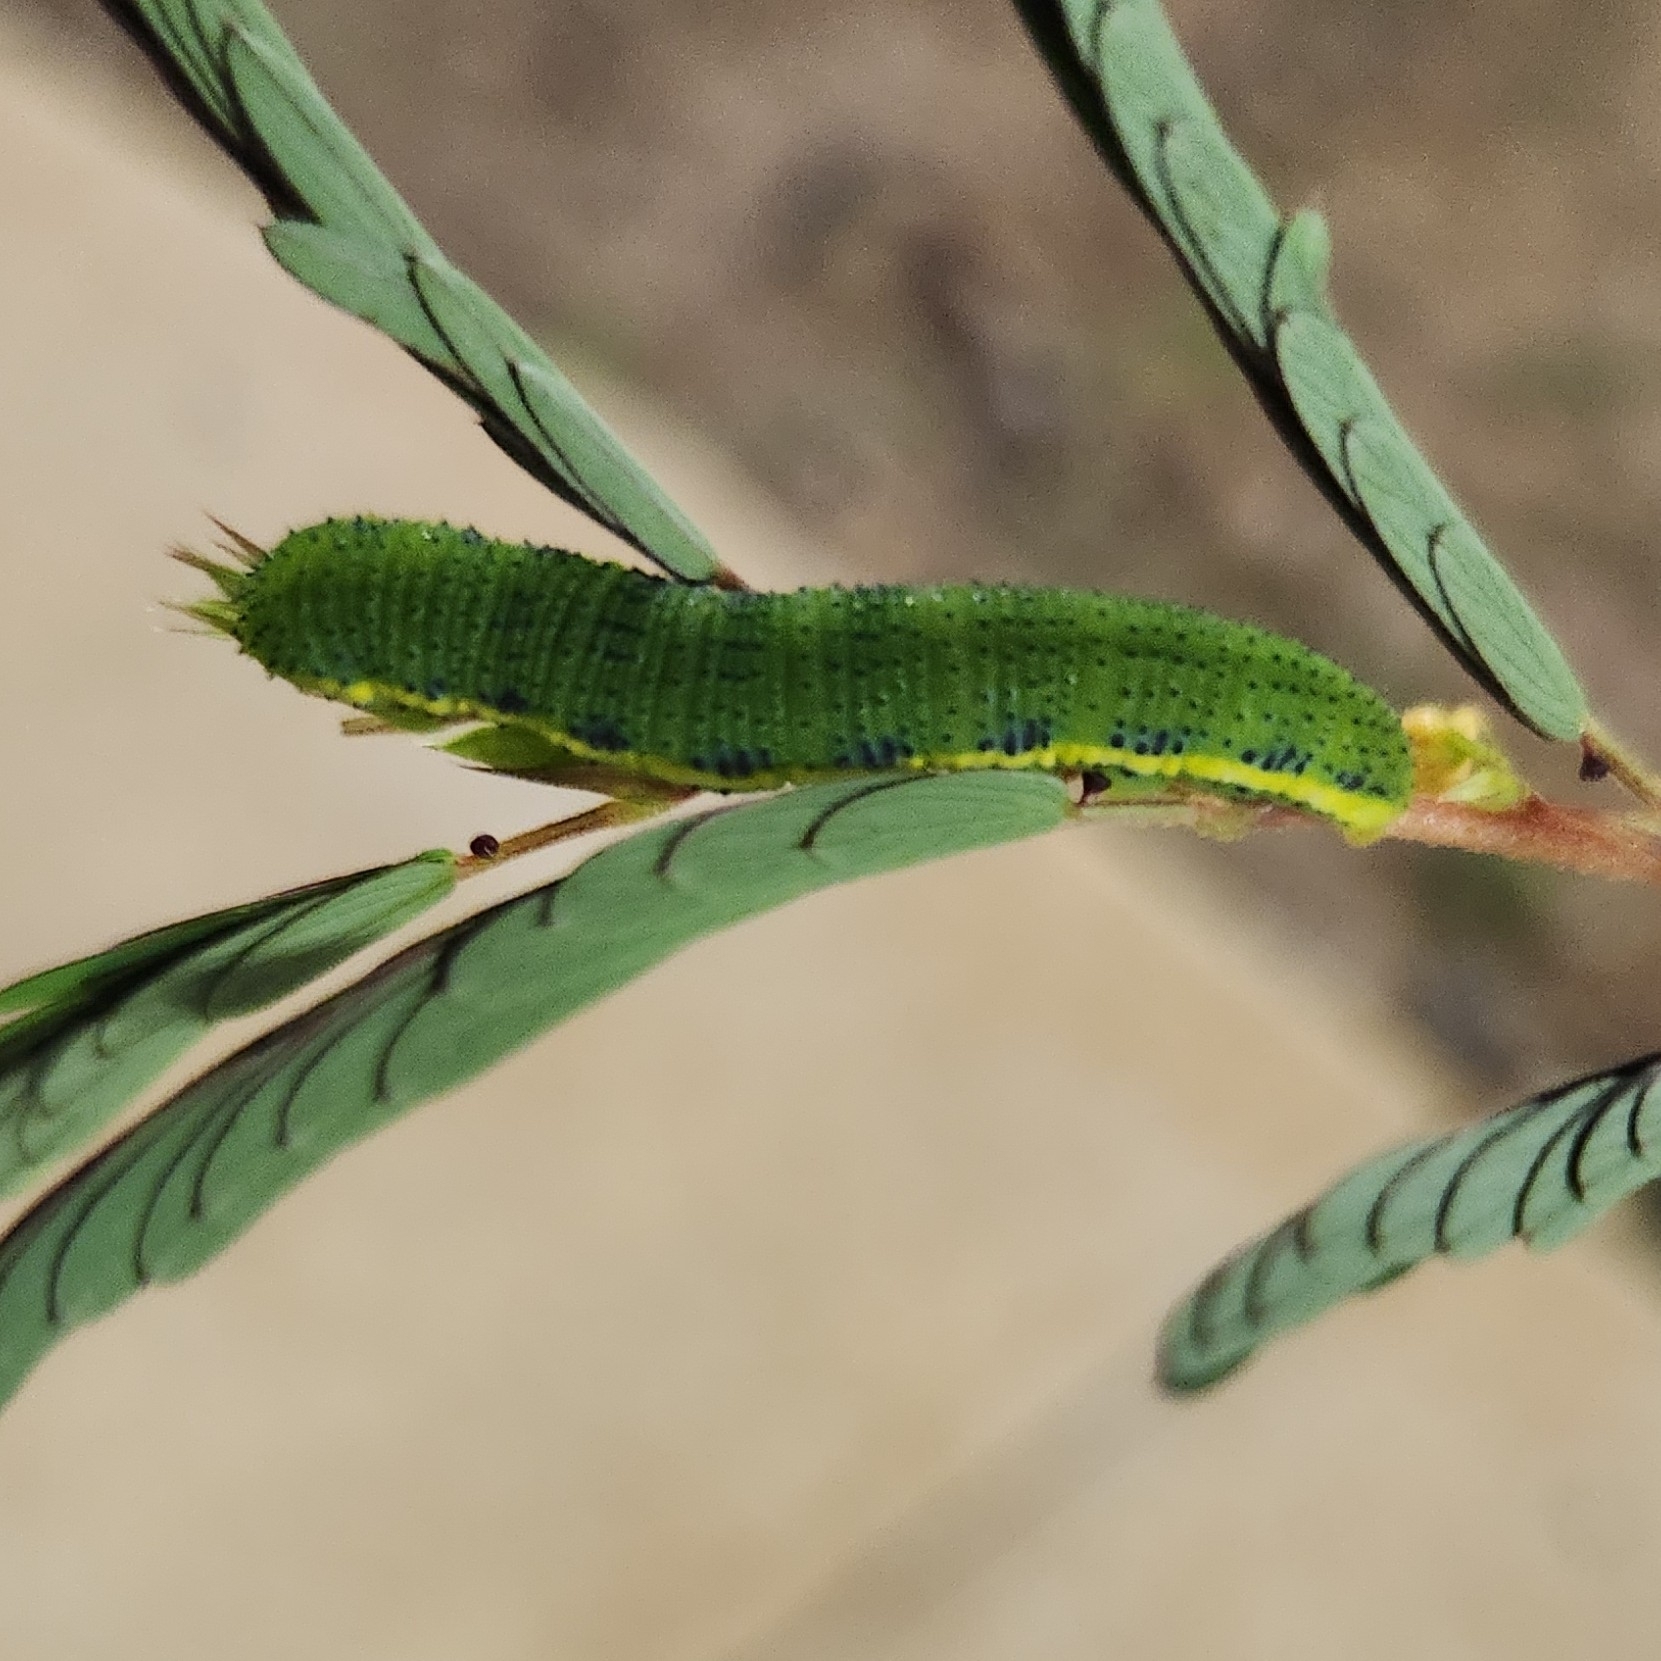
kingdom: Animalia
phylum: Arthropoda
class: Insecta
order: Lepidoptera
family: Pieridae
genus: Phoebis
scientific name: Phoebis sennae
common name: Cloudless sulphur
